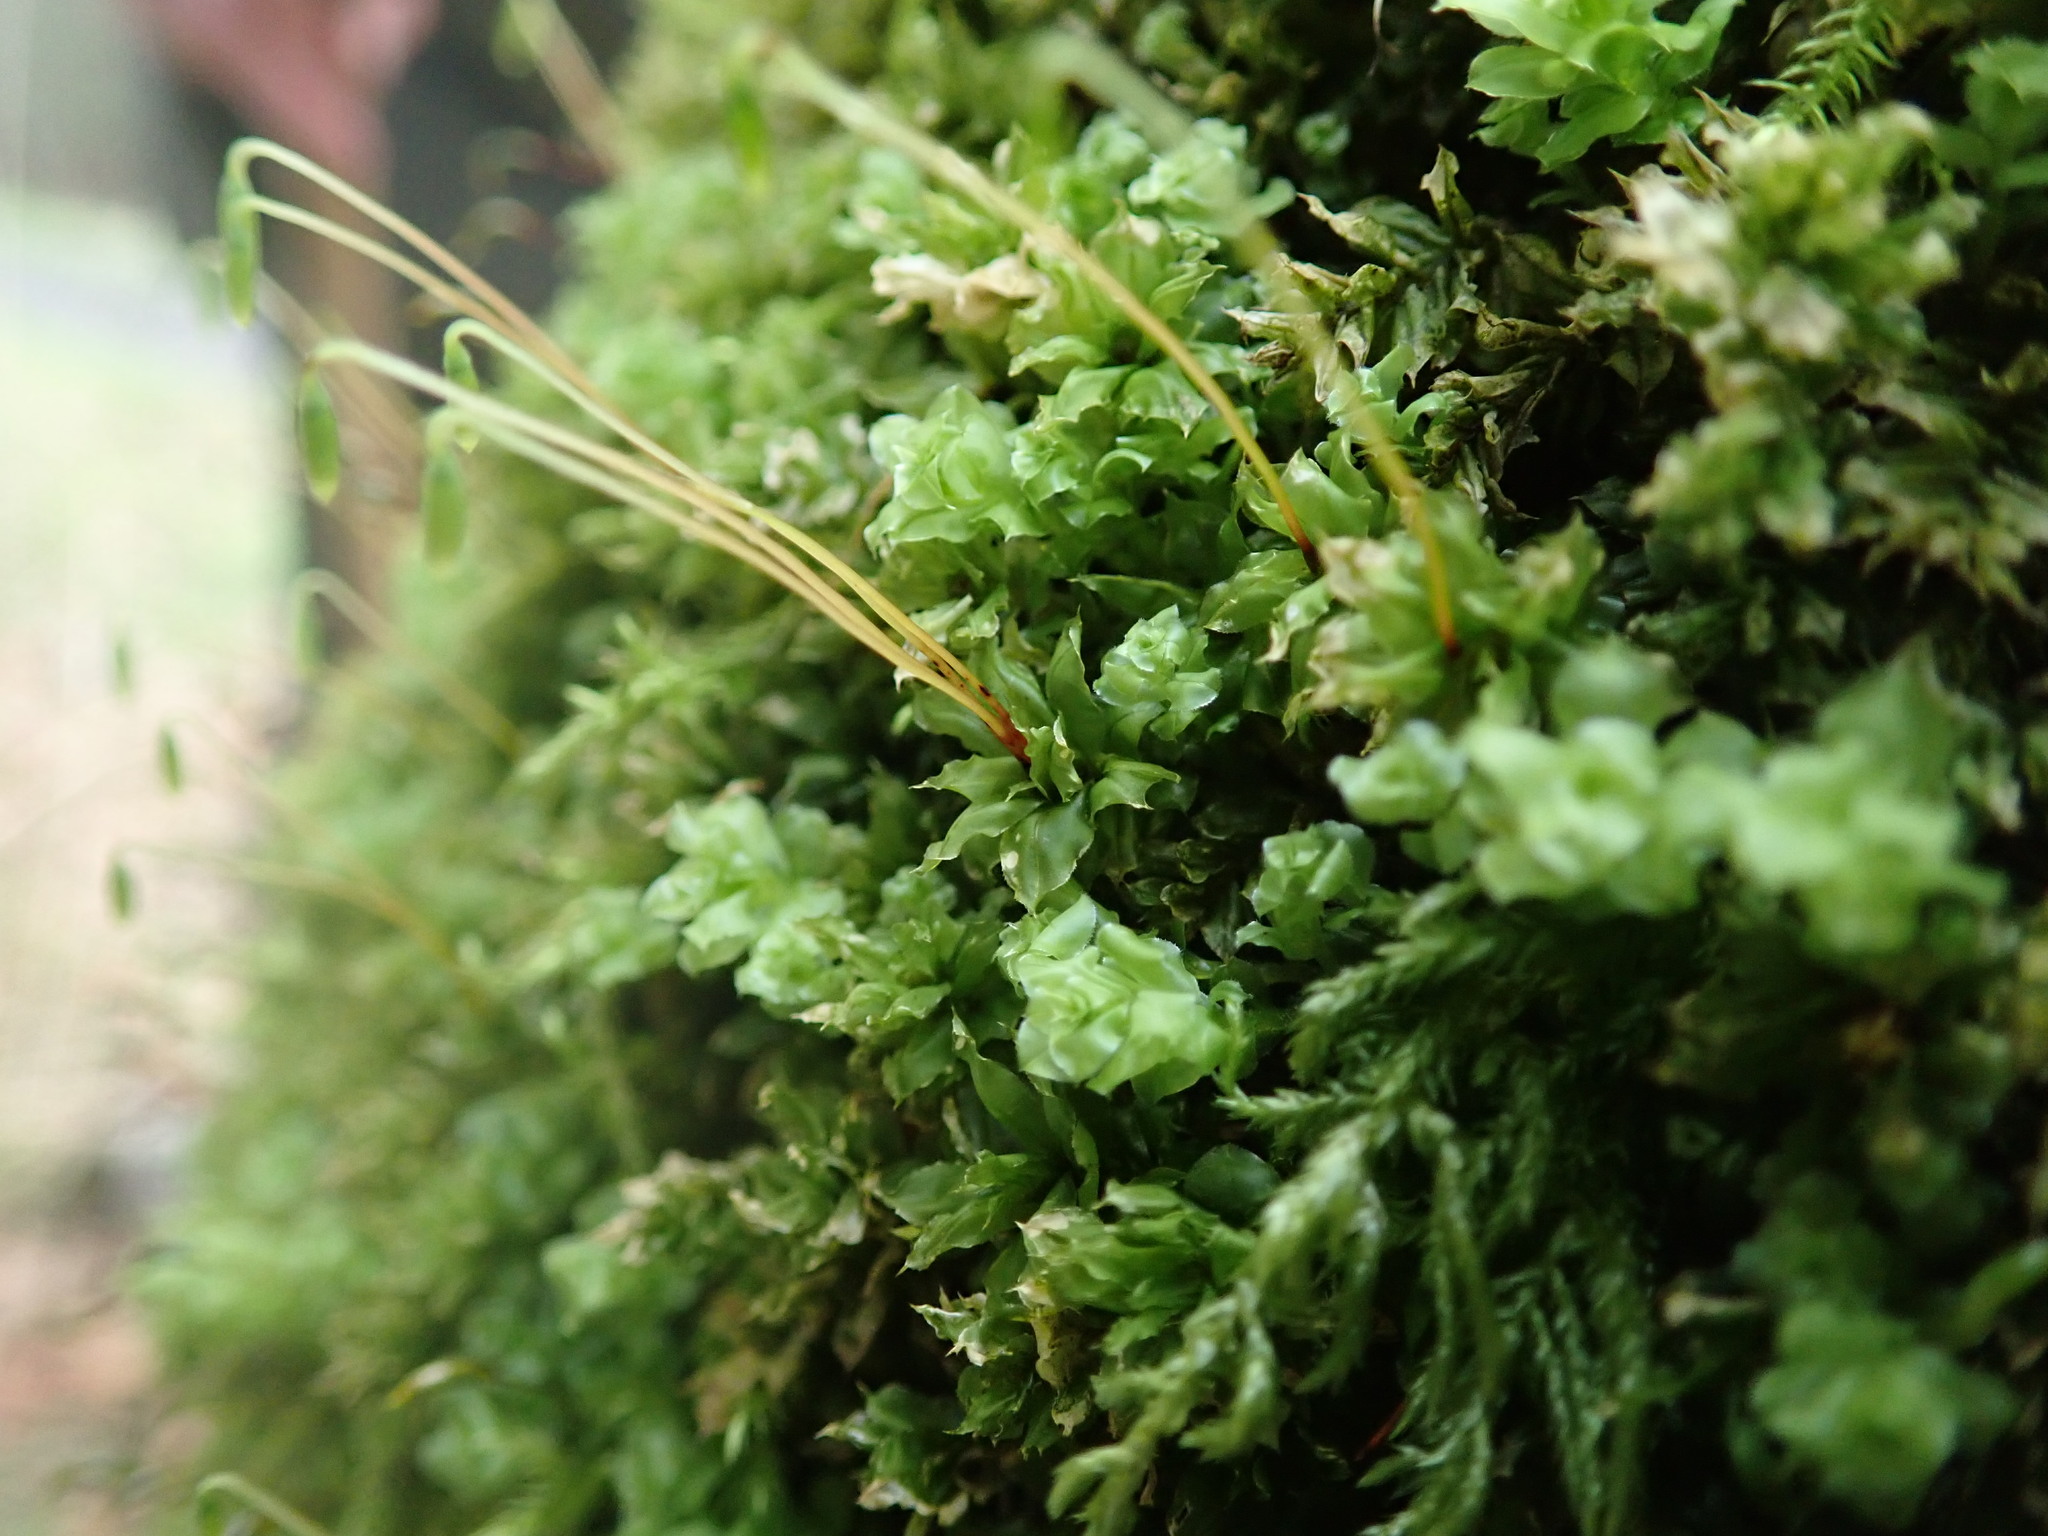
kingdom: Plantae
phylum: Bryophyta
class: Bryopsida
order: Bryales
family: Mniaceae
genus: Plagiomnium
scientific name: Plagiomnium venustum
